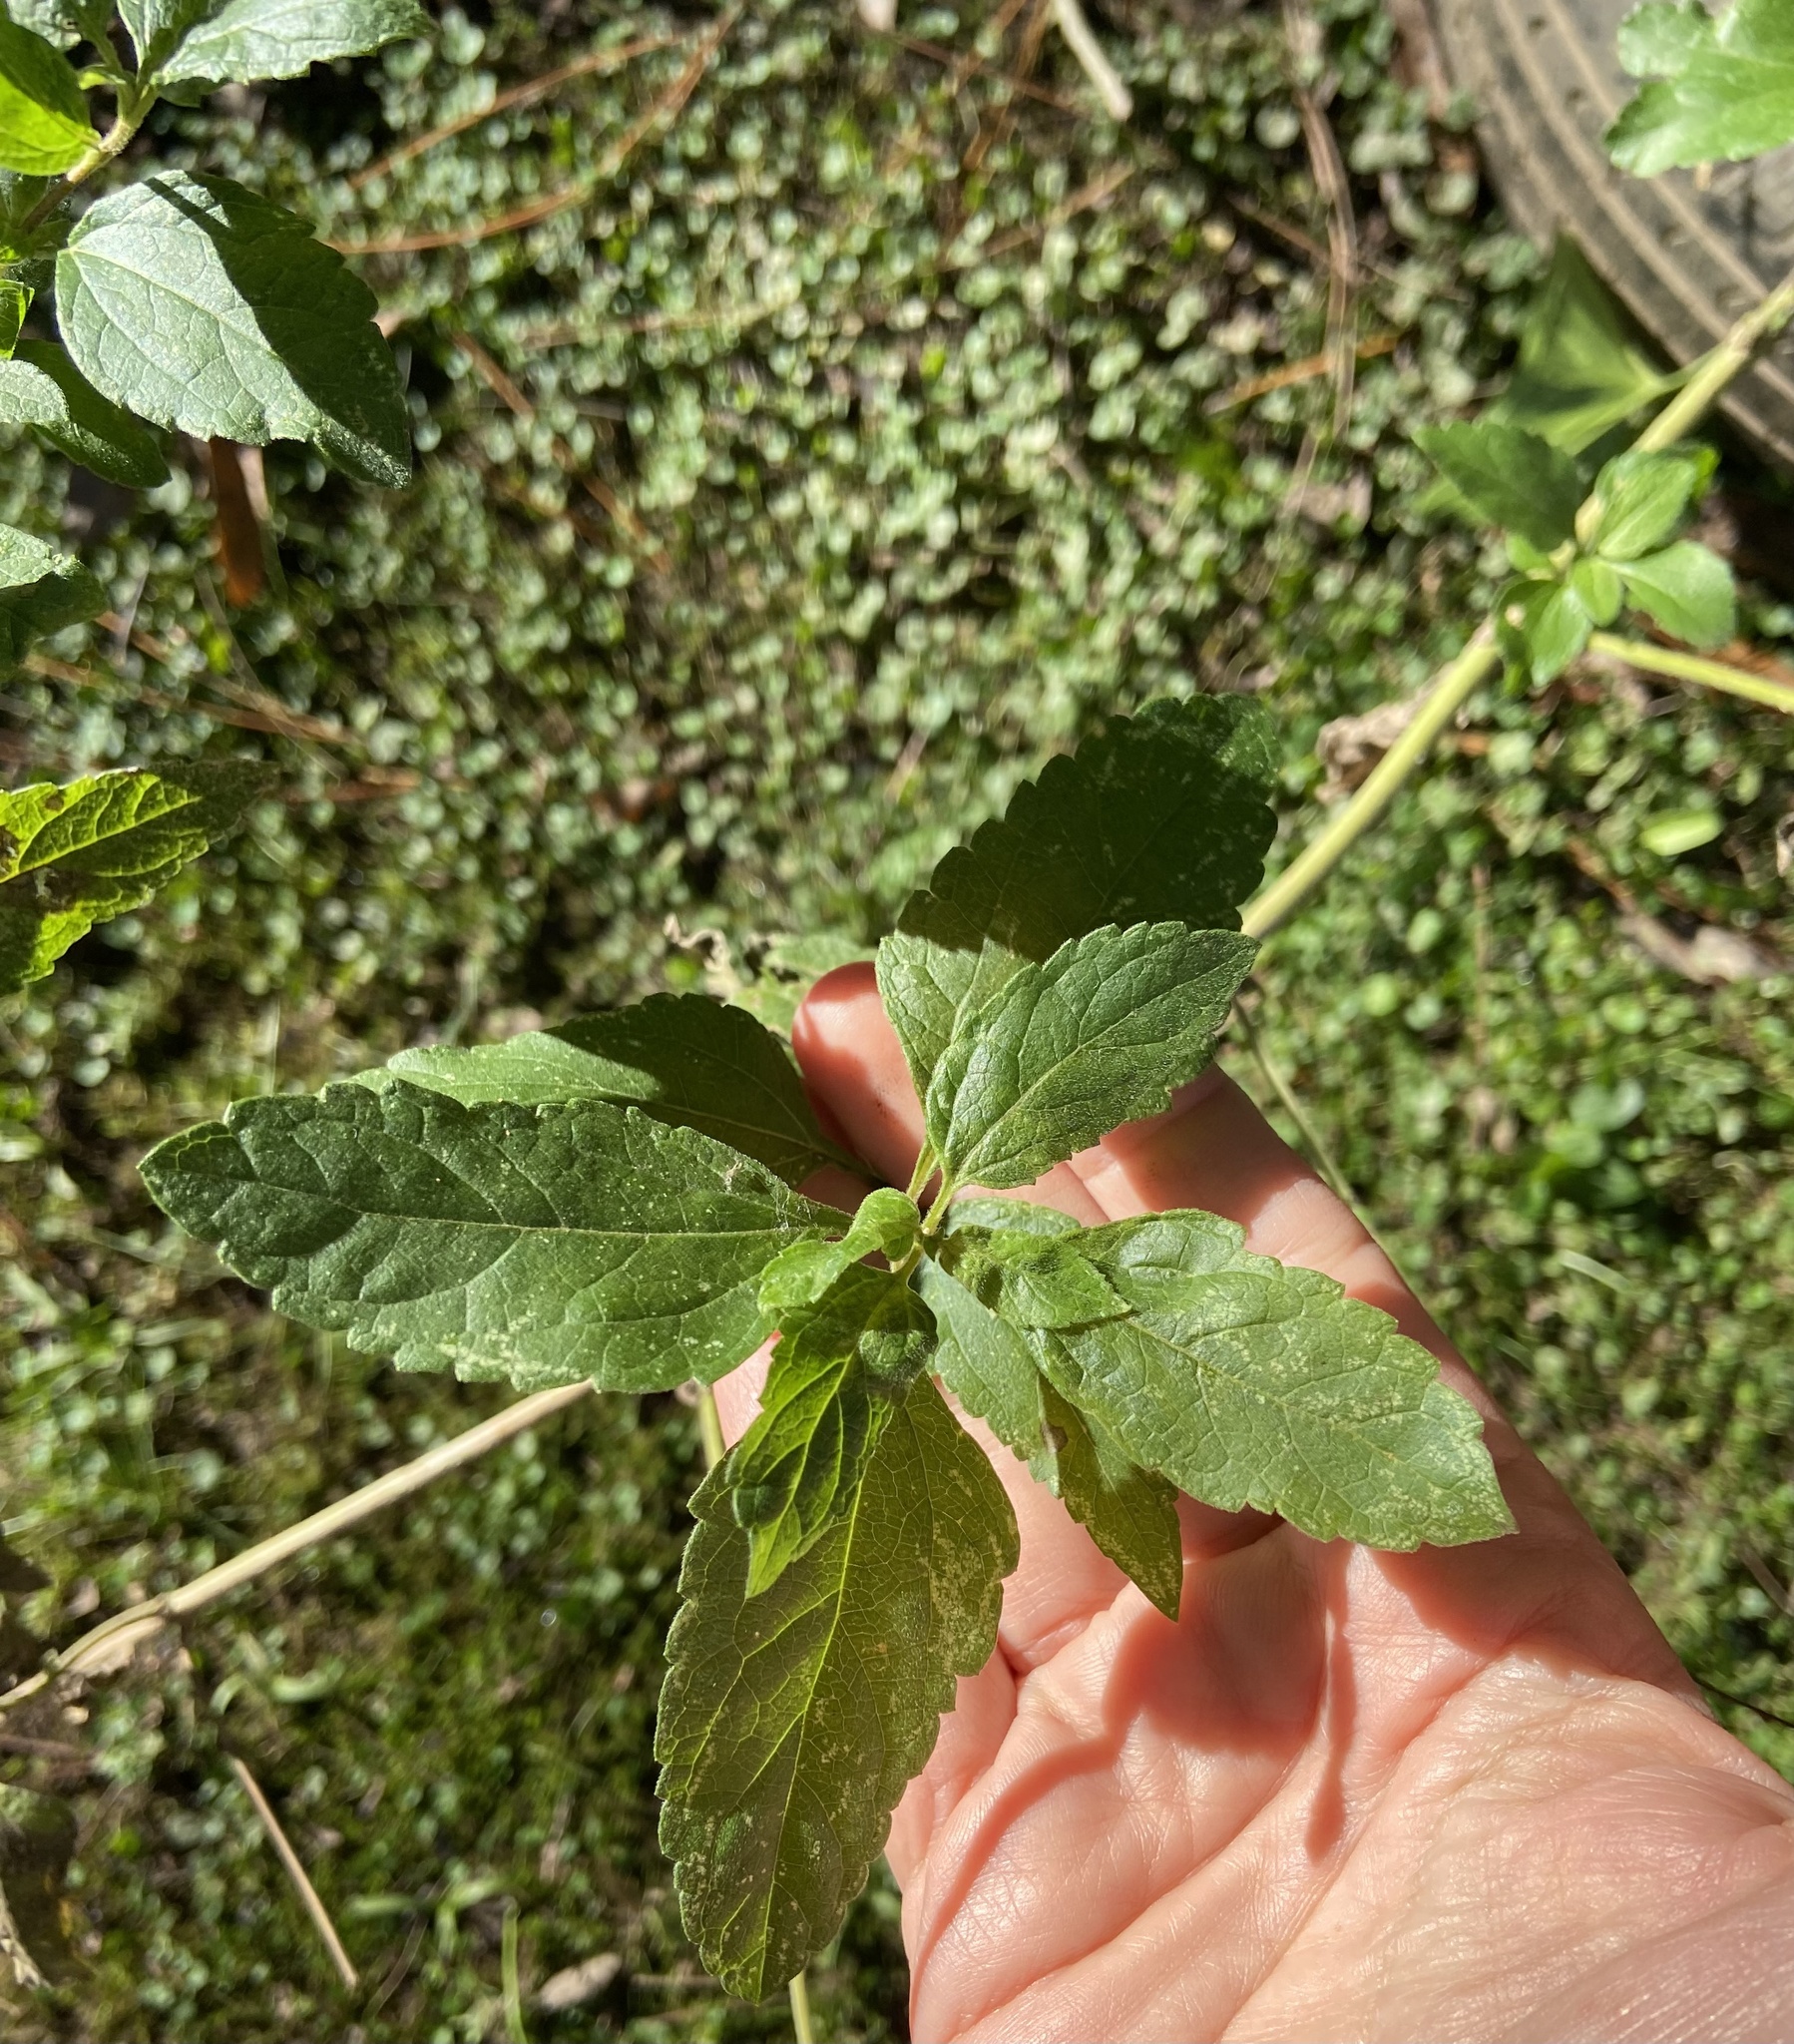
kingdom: Plantae
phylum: Tracheophyta
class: Magnoliopsida
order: Asterales
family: Asteraceae
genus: Austroeupatorium
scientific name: Austroeupatorium inulifolium
